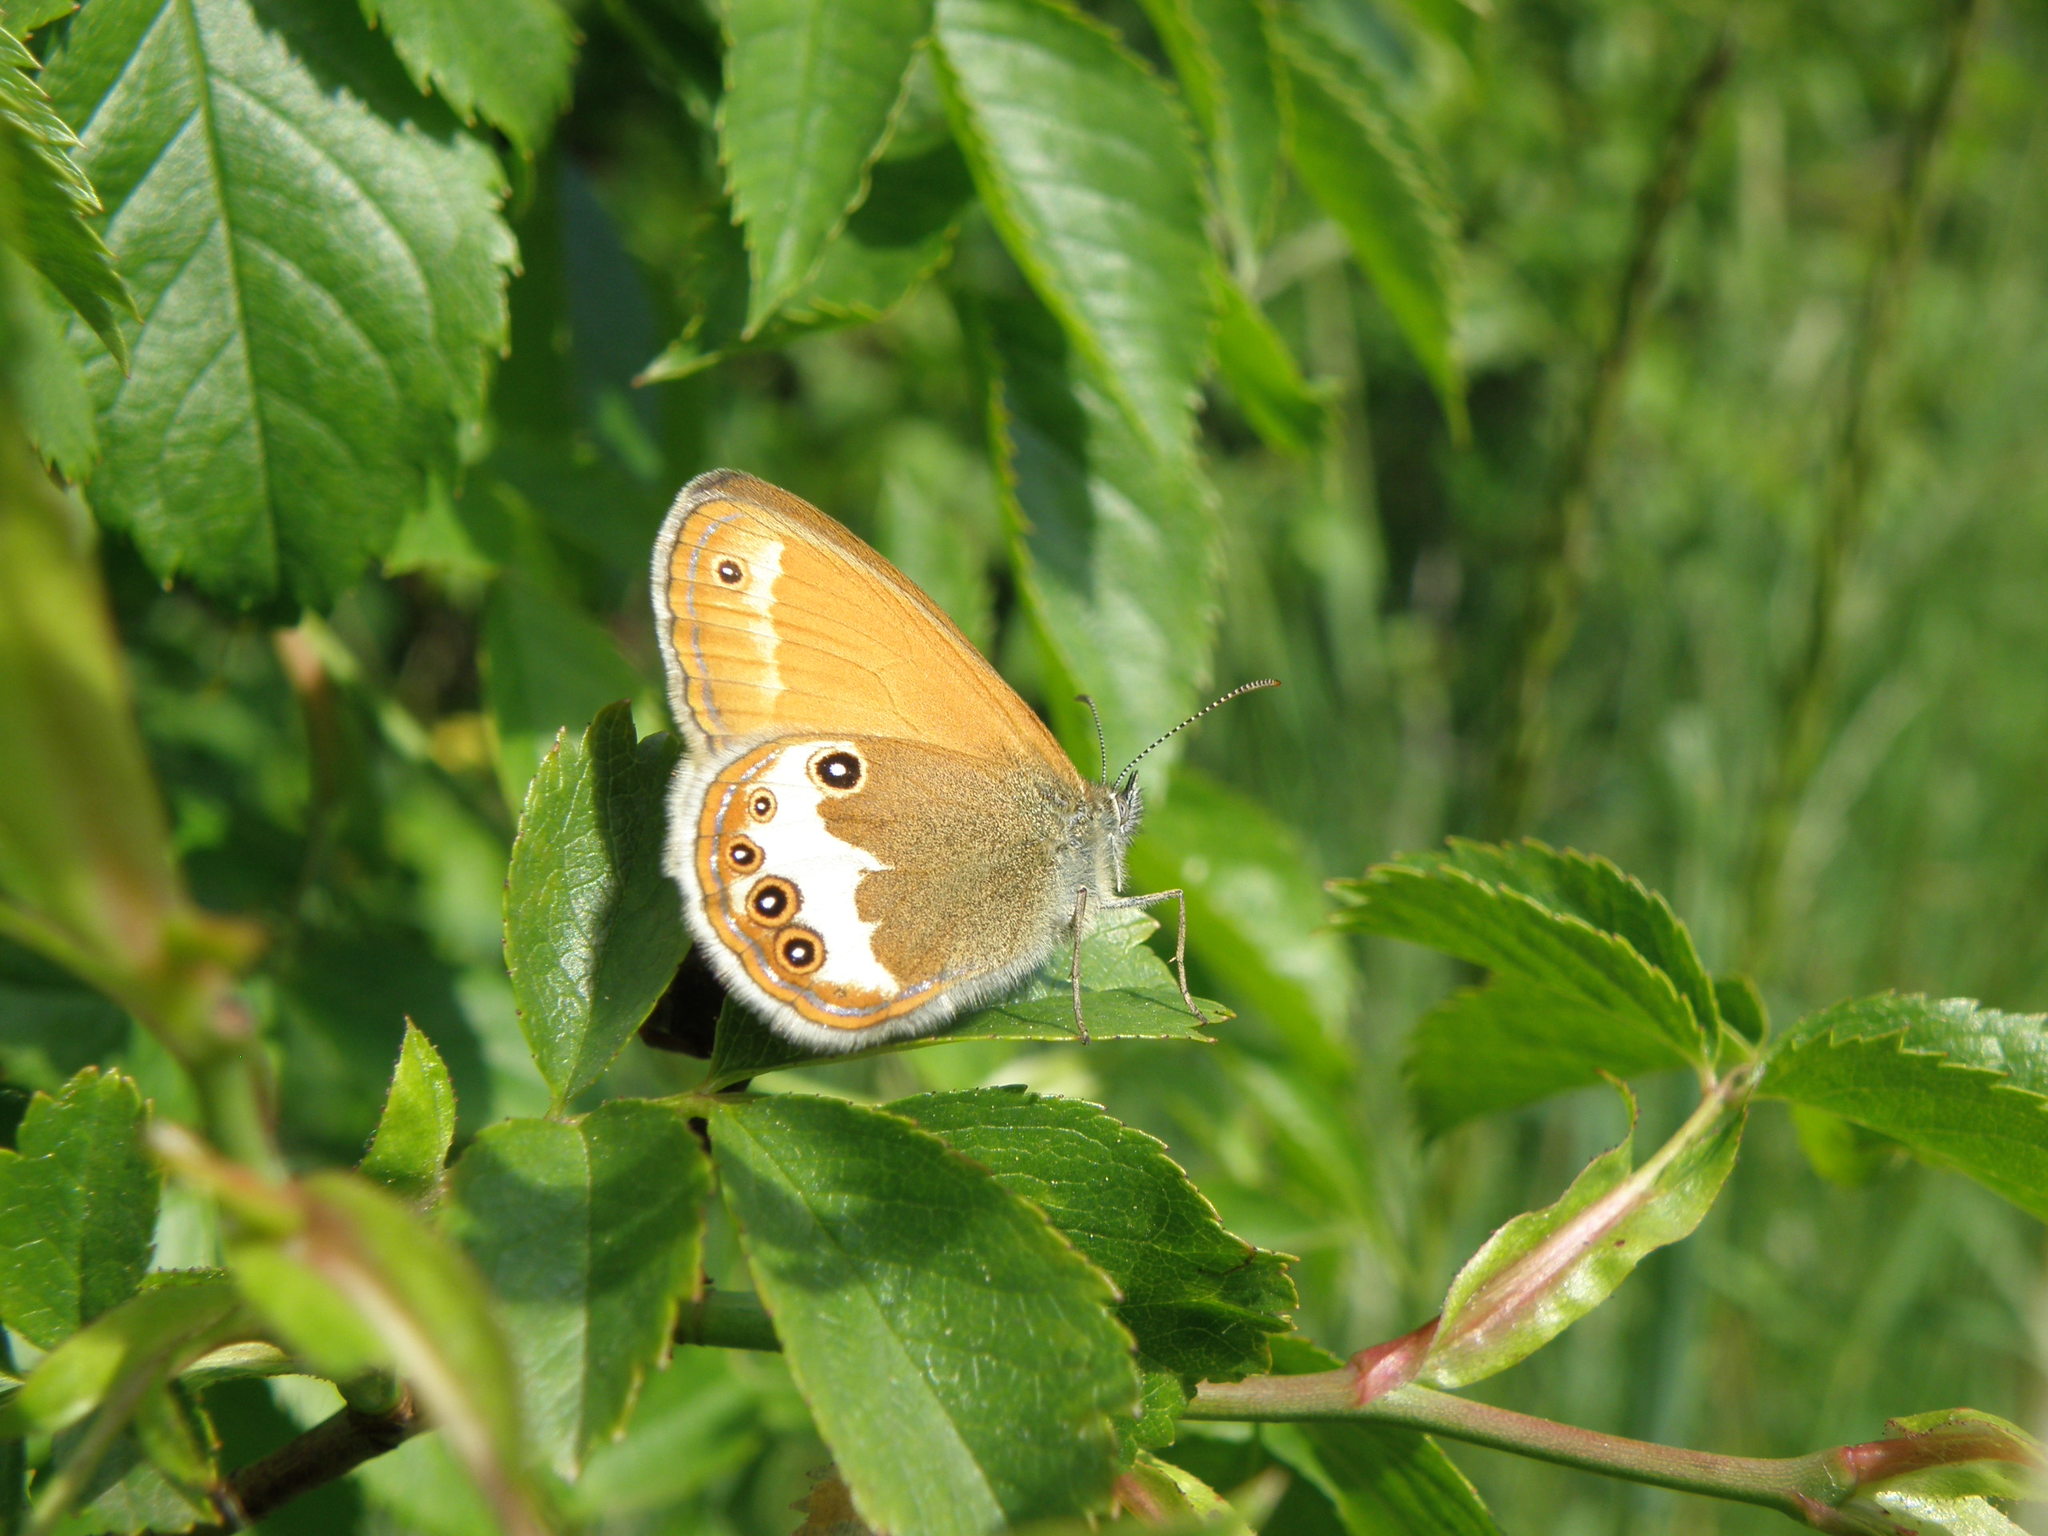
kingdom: Animalia
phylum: Arthropoda
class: Insecta
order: Lepidoptera
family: Nymphalidae
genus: Coenonympha
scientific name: Coenonympha arcania
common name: Pearly heath
